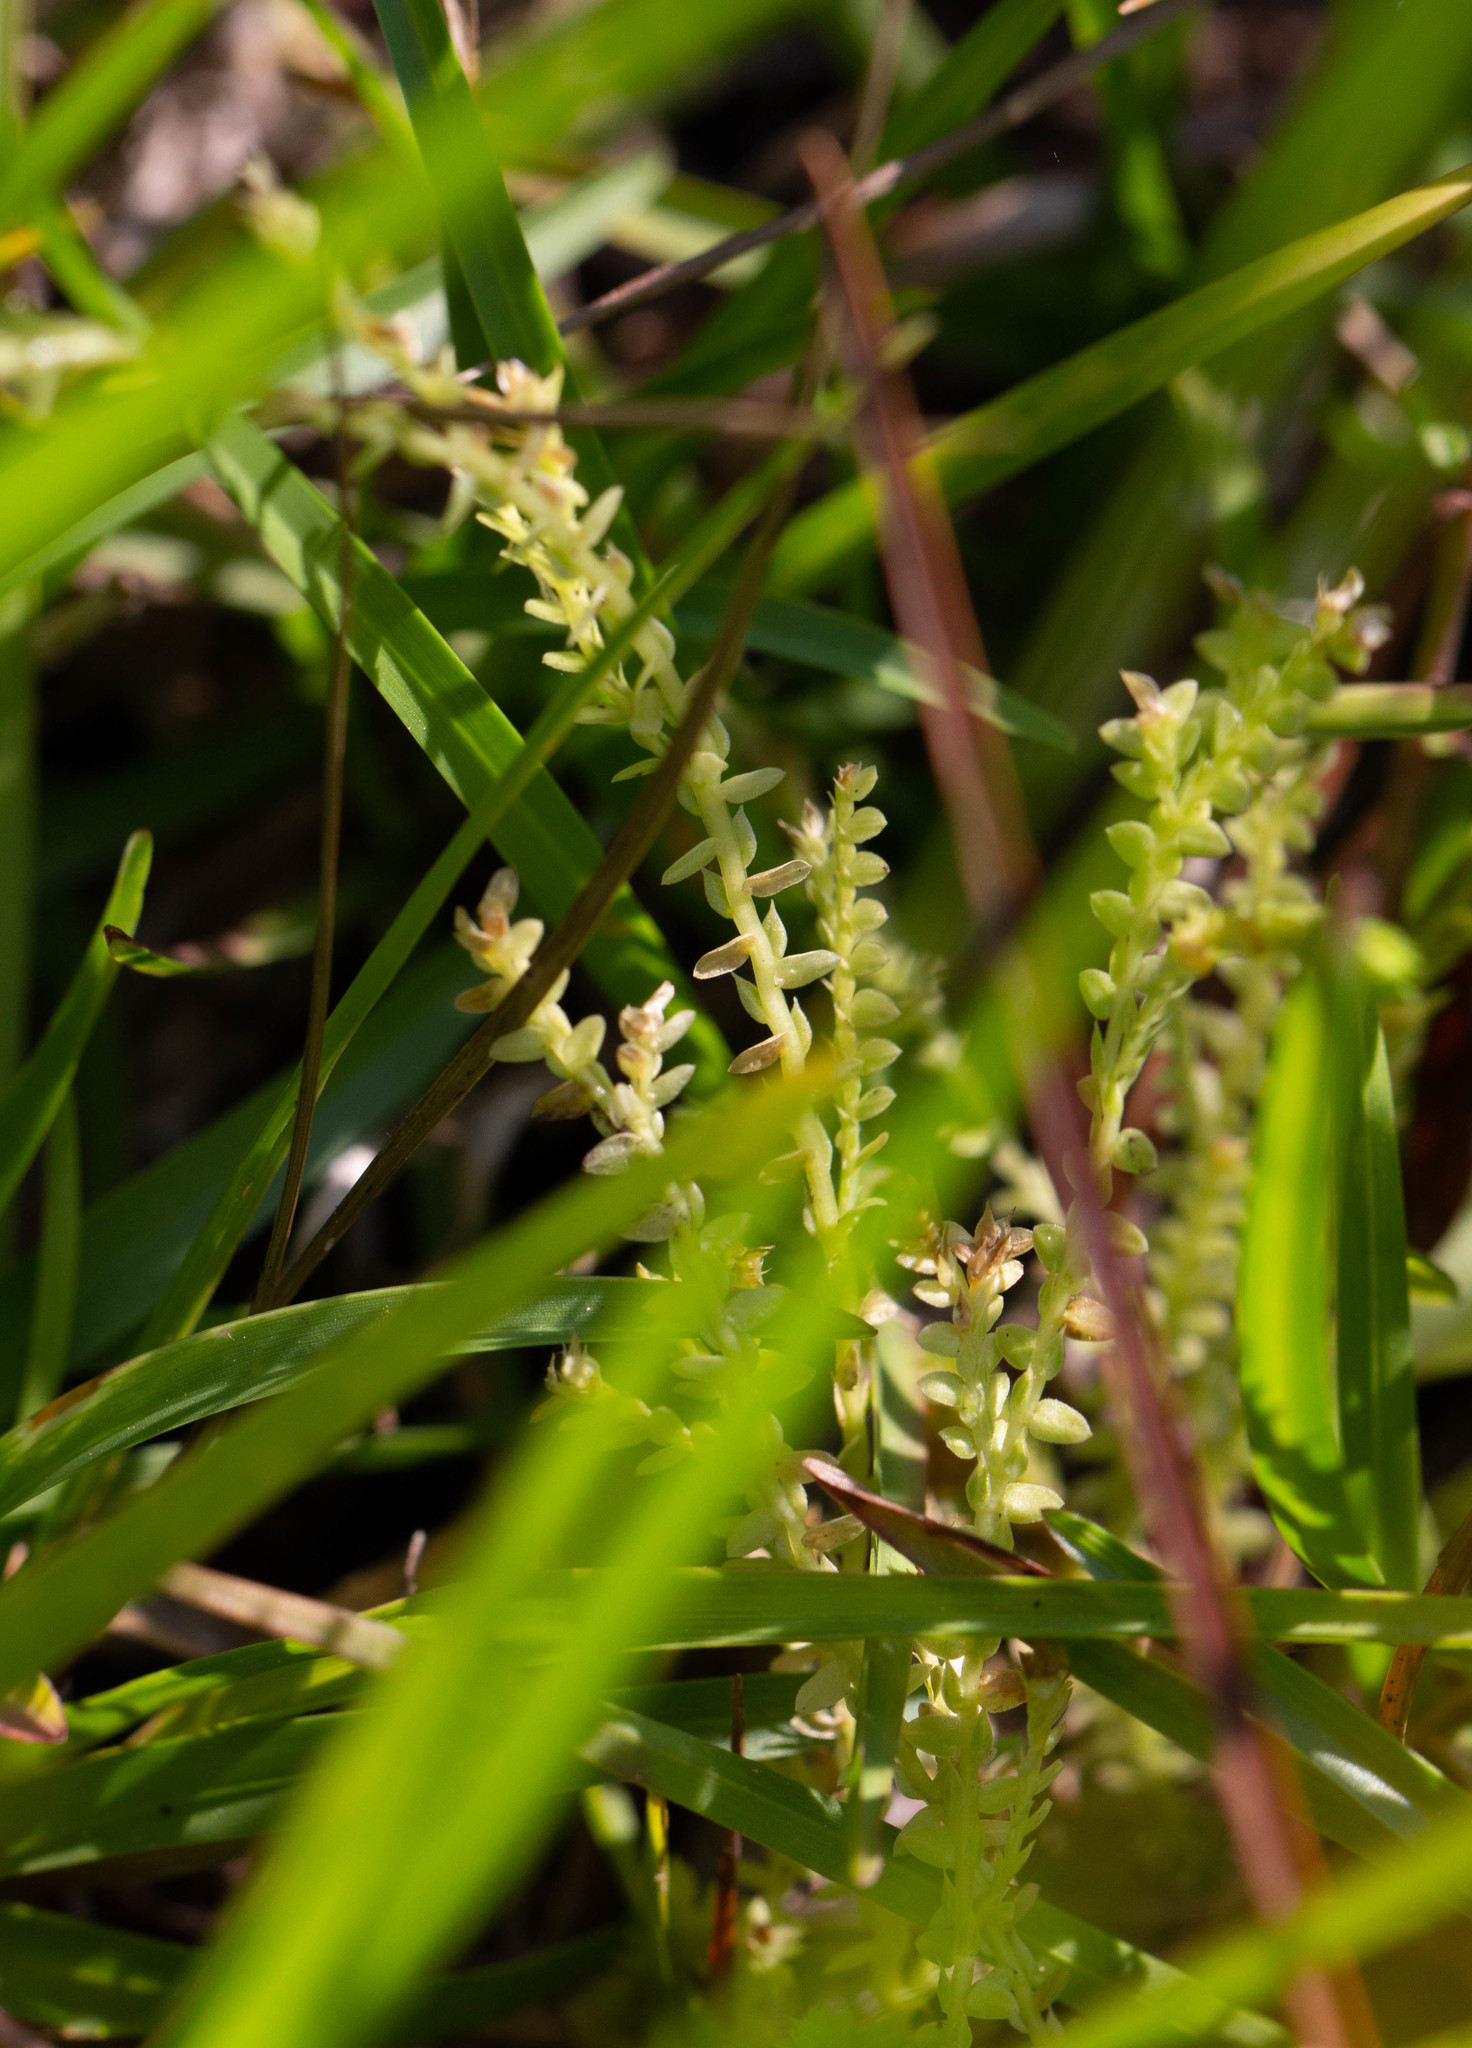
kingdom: Plantae
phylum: Tracheophyta
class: Lycopodiopsida
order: Selaginellales
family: Selaginellaceae
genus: Selaginella
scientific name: Selaginella ludoviciana
